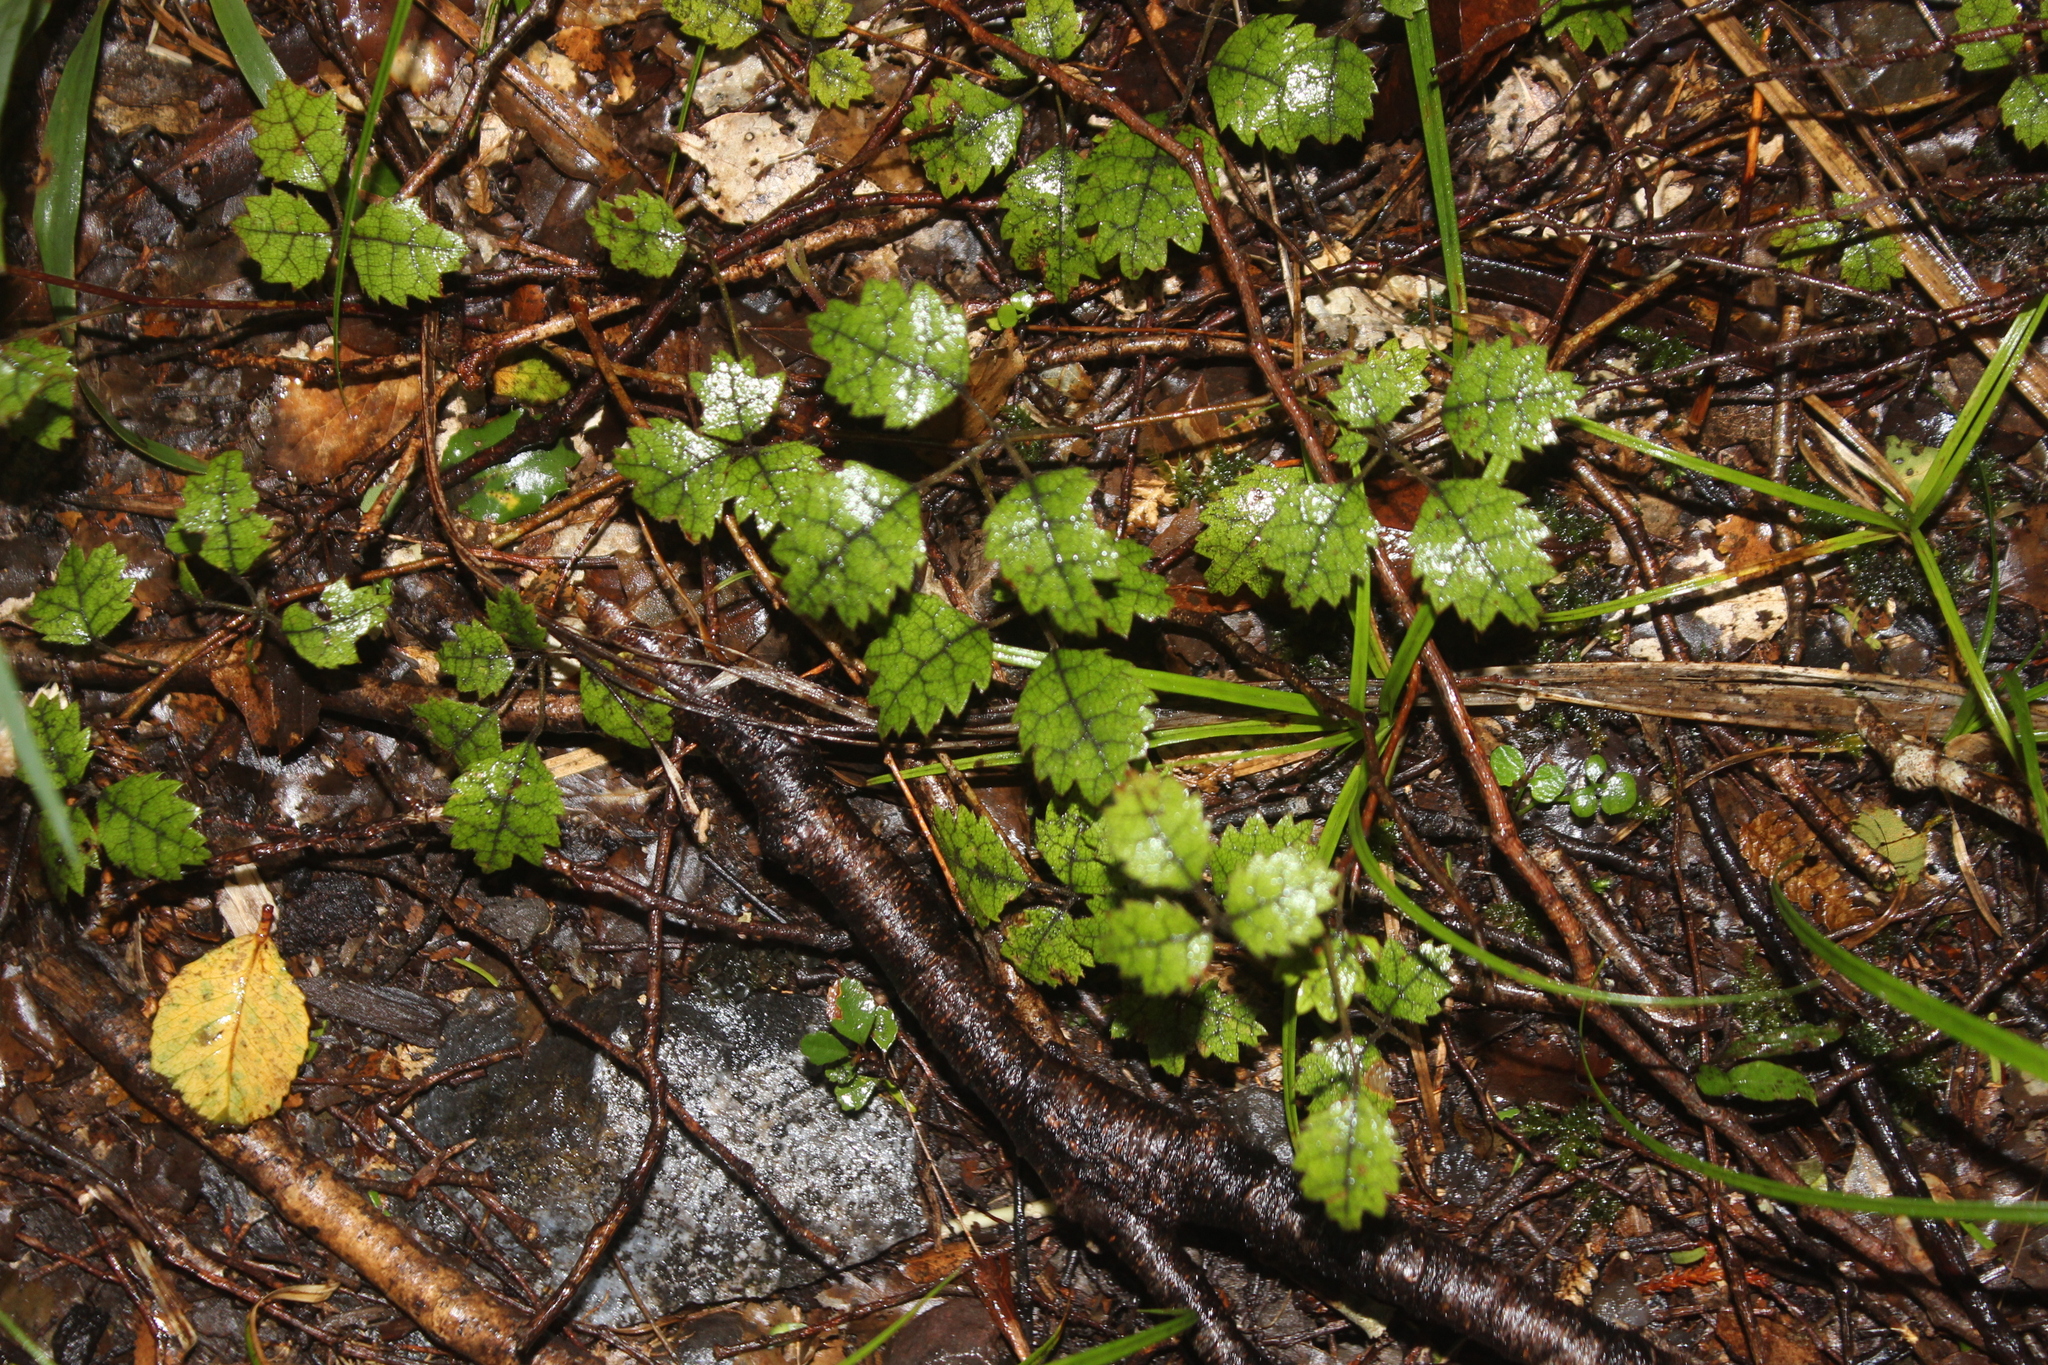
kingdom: Plantae
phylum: Tracheophyta
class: Magnoliopsida
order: Rosales
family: Rosaceae
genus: Rubus
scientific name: Rubus australis
